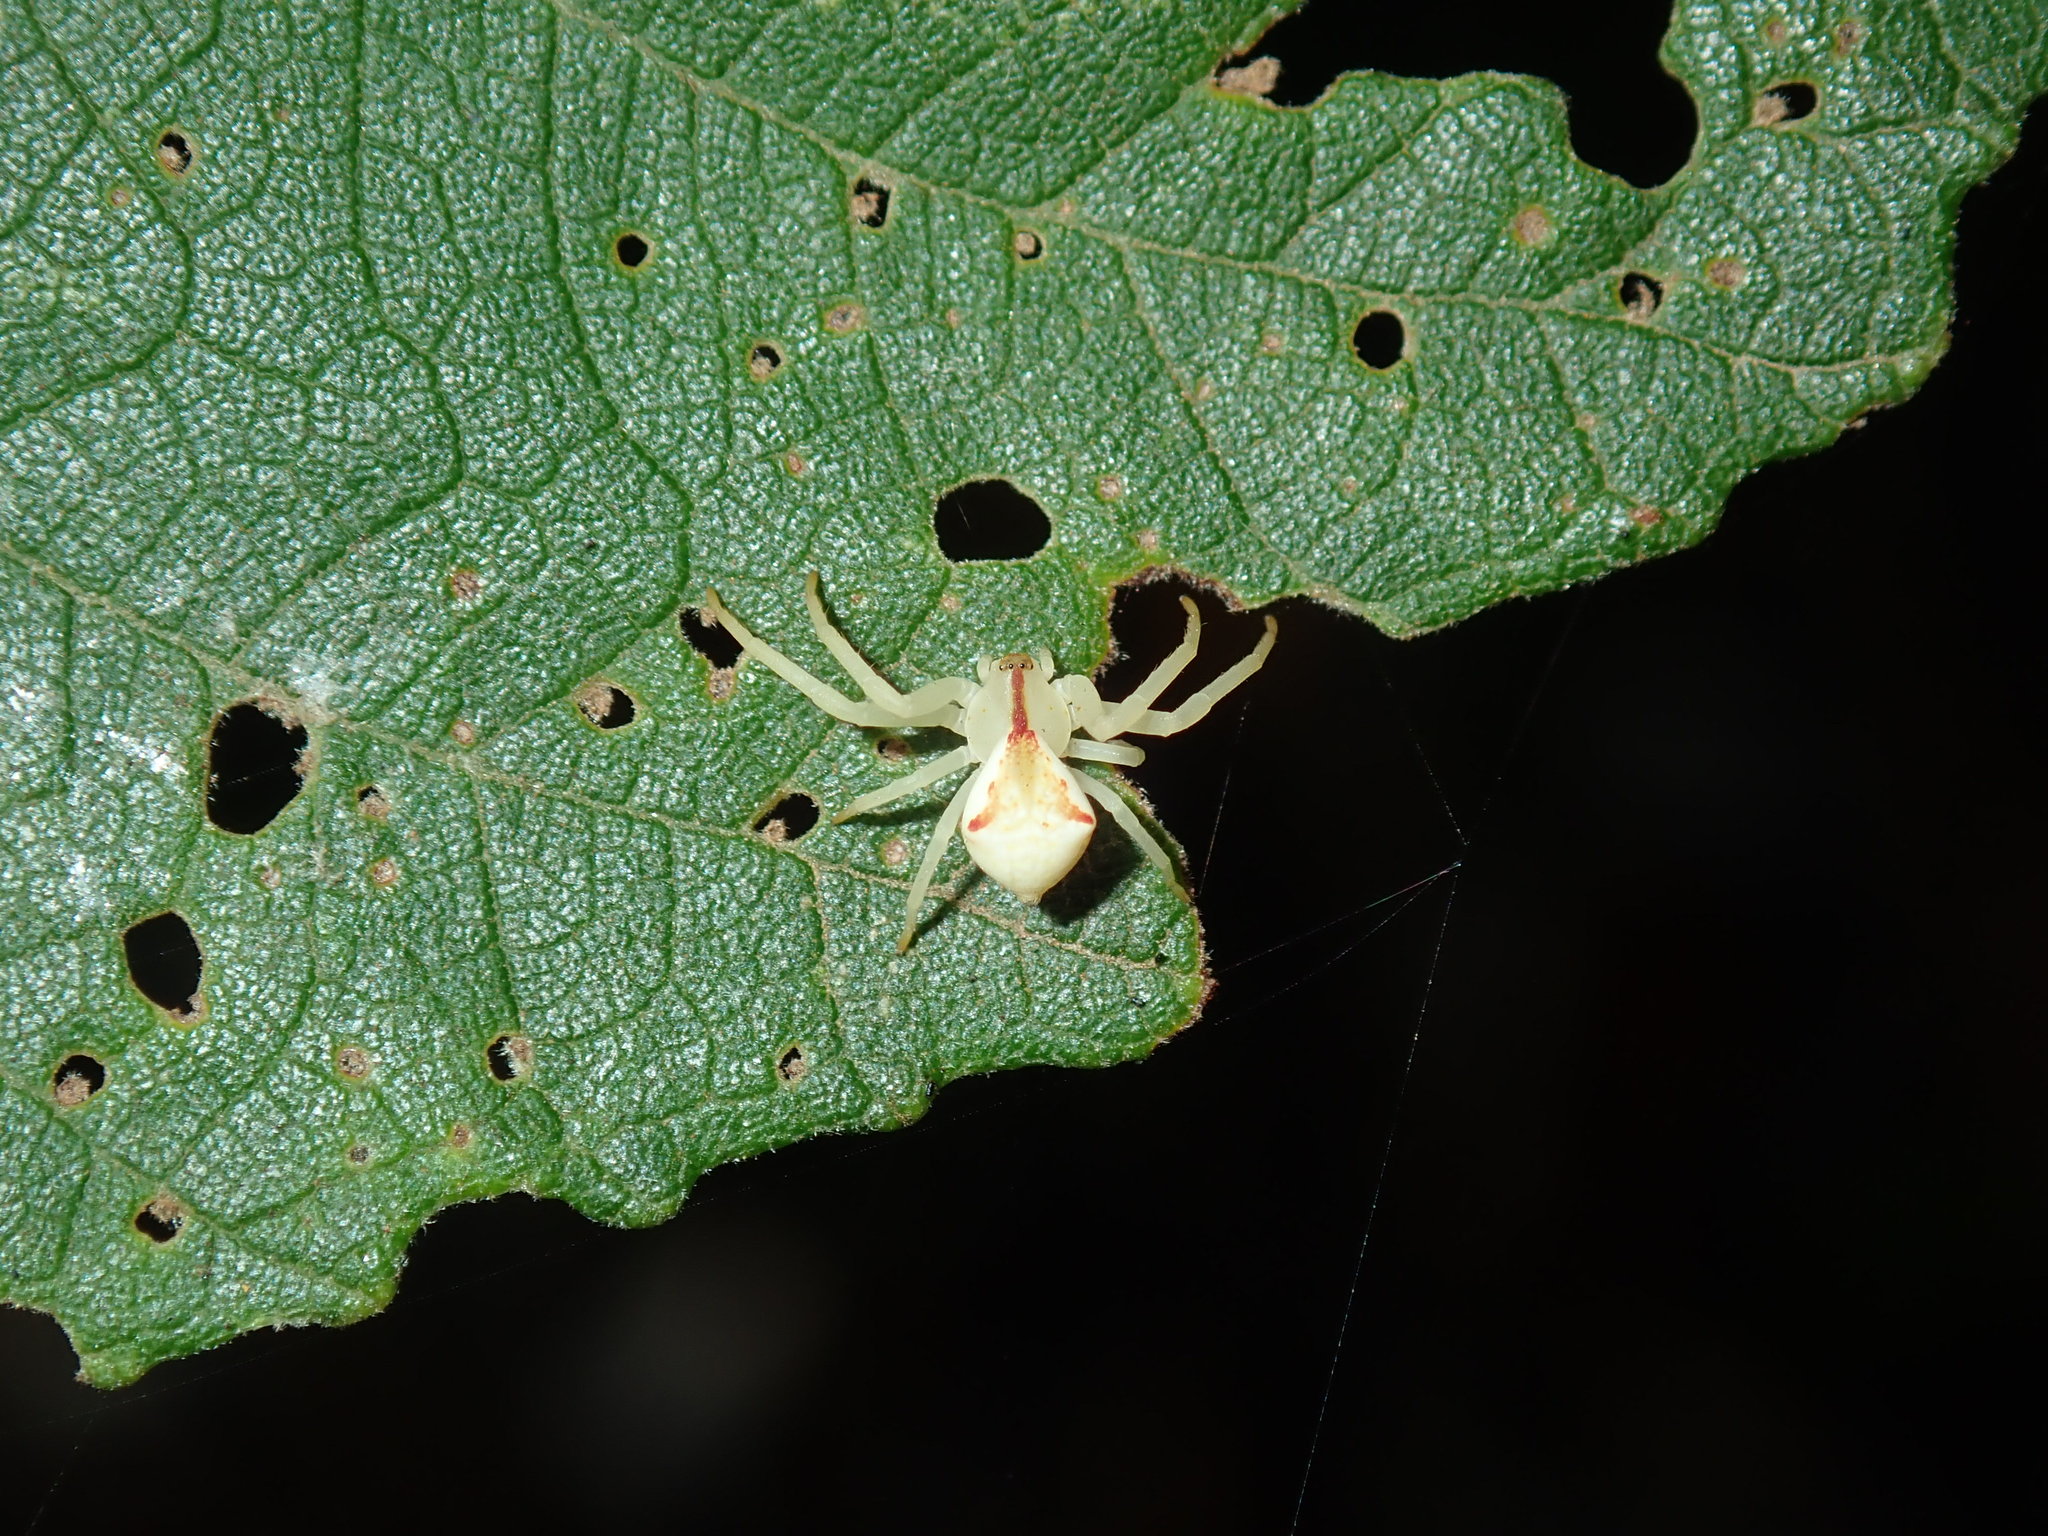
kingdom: Animalia
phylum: Arthropoda
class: Arachnida
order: Araneae
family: Thomisidae
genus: Sidymella
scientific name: Sidymella rubrosignata
